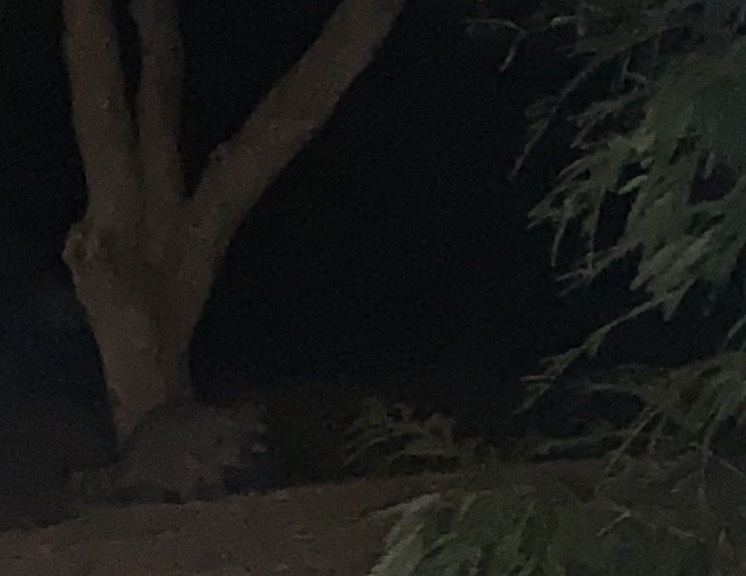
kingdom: Animalia
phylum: Chordata
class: Mammalia
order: Carnivora
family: Procyonidae
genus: Procyon
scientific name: Procyon lotor
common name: Raccoon
